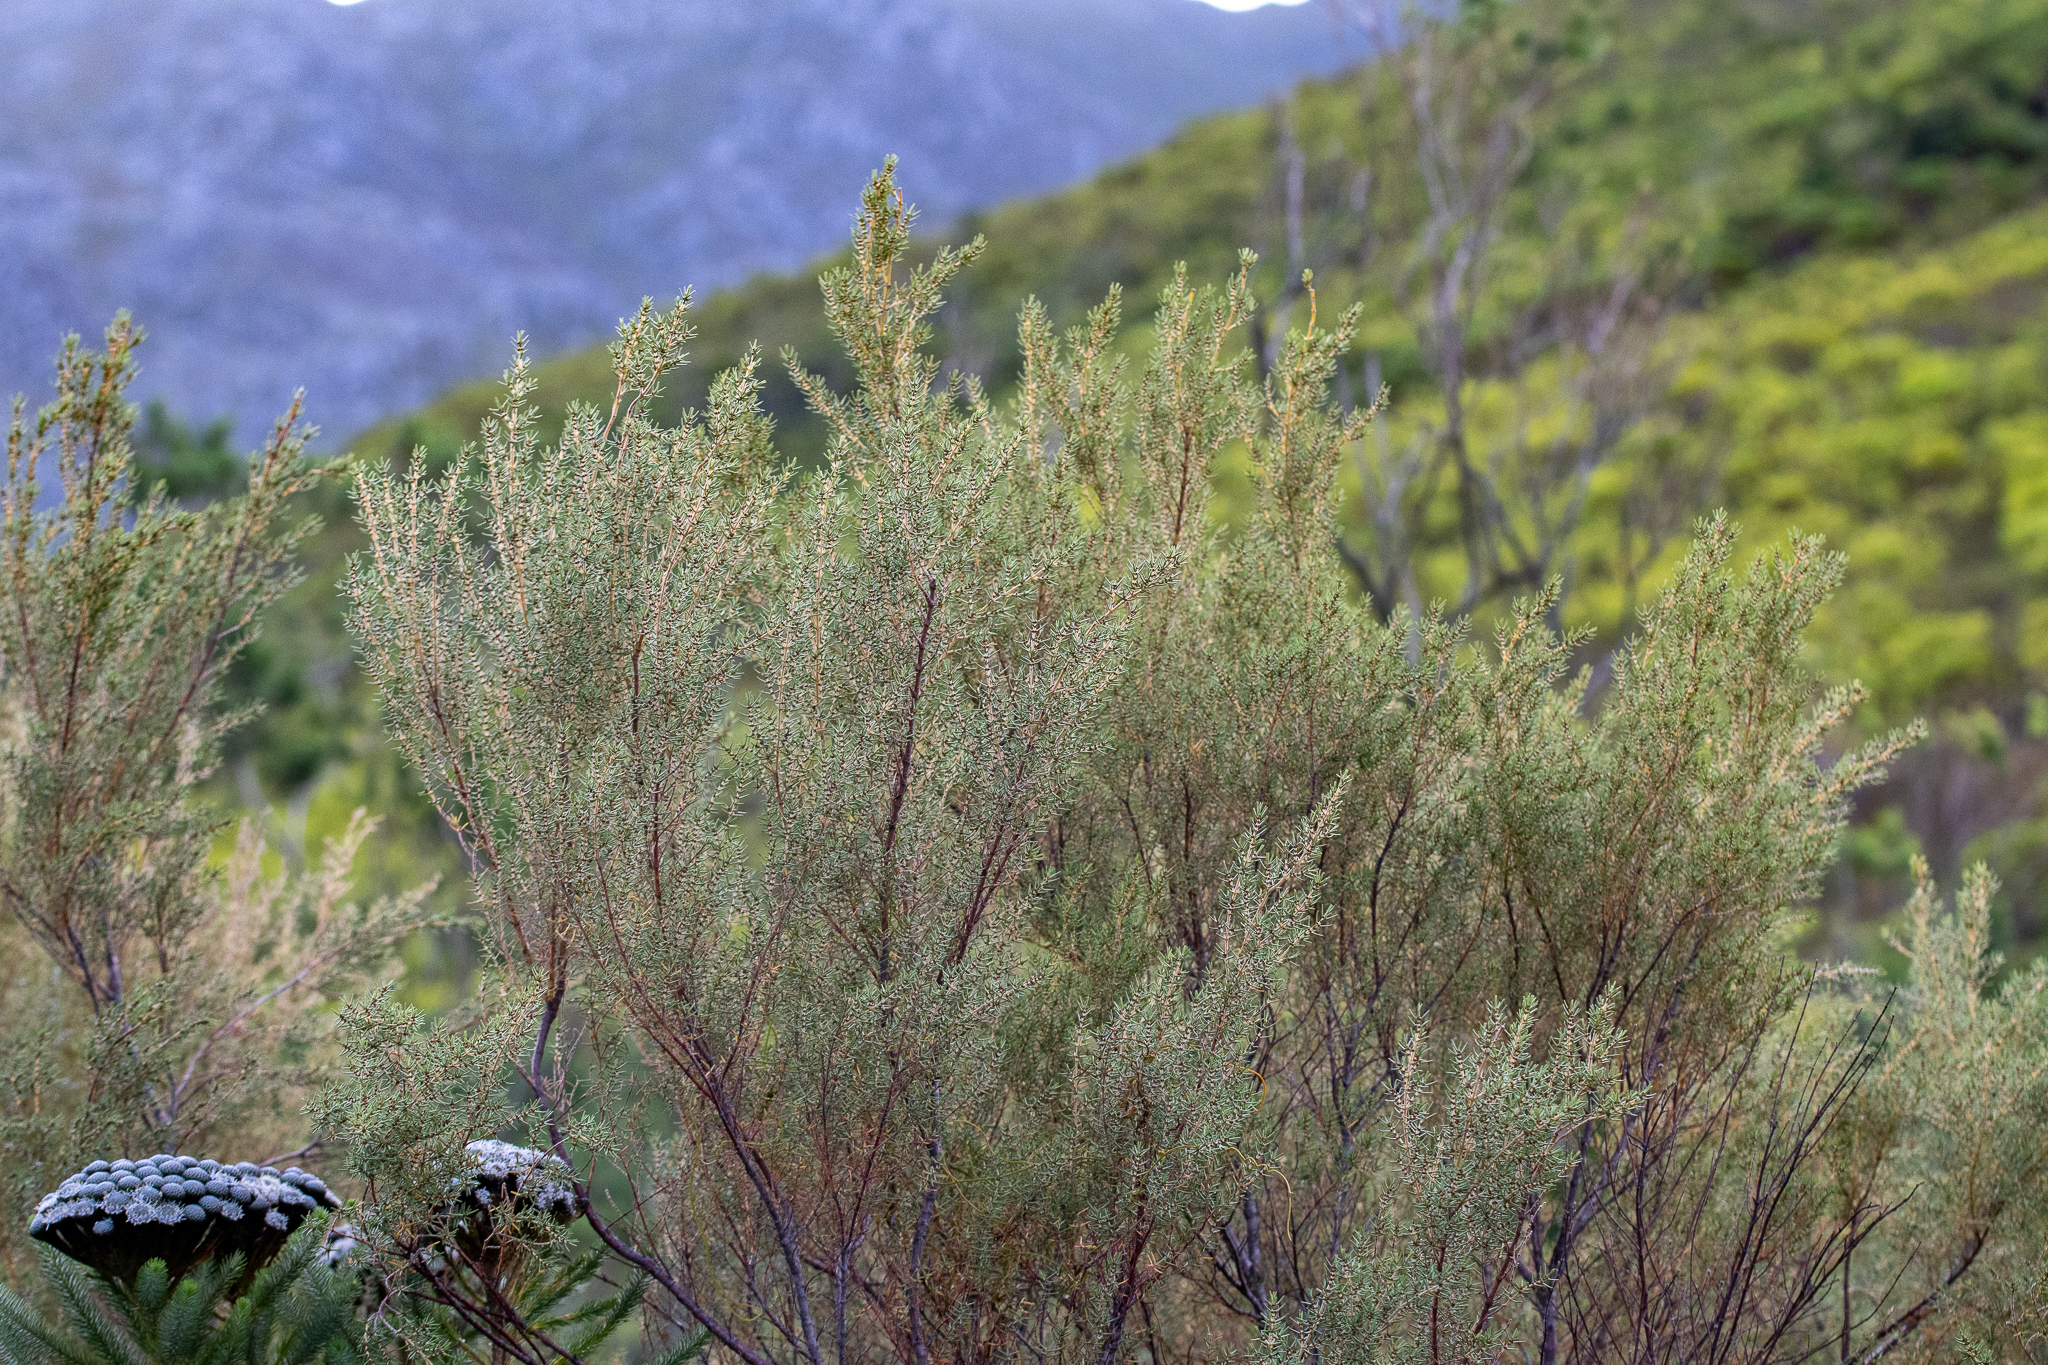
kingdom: Plantae
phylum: Tracheophyta
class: Magnoliopsida
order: Cornales
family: Grubbiaceae
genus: Grubbia
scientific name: Grubbia rosmarinifolia
